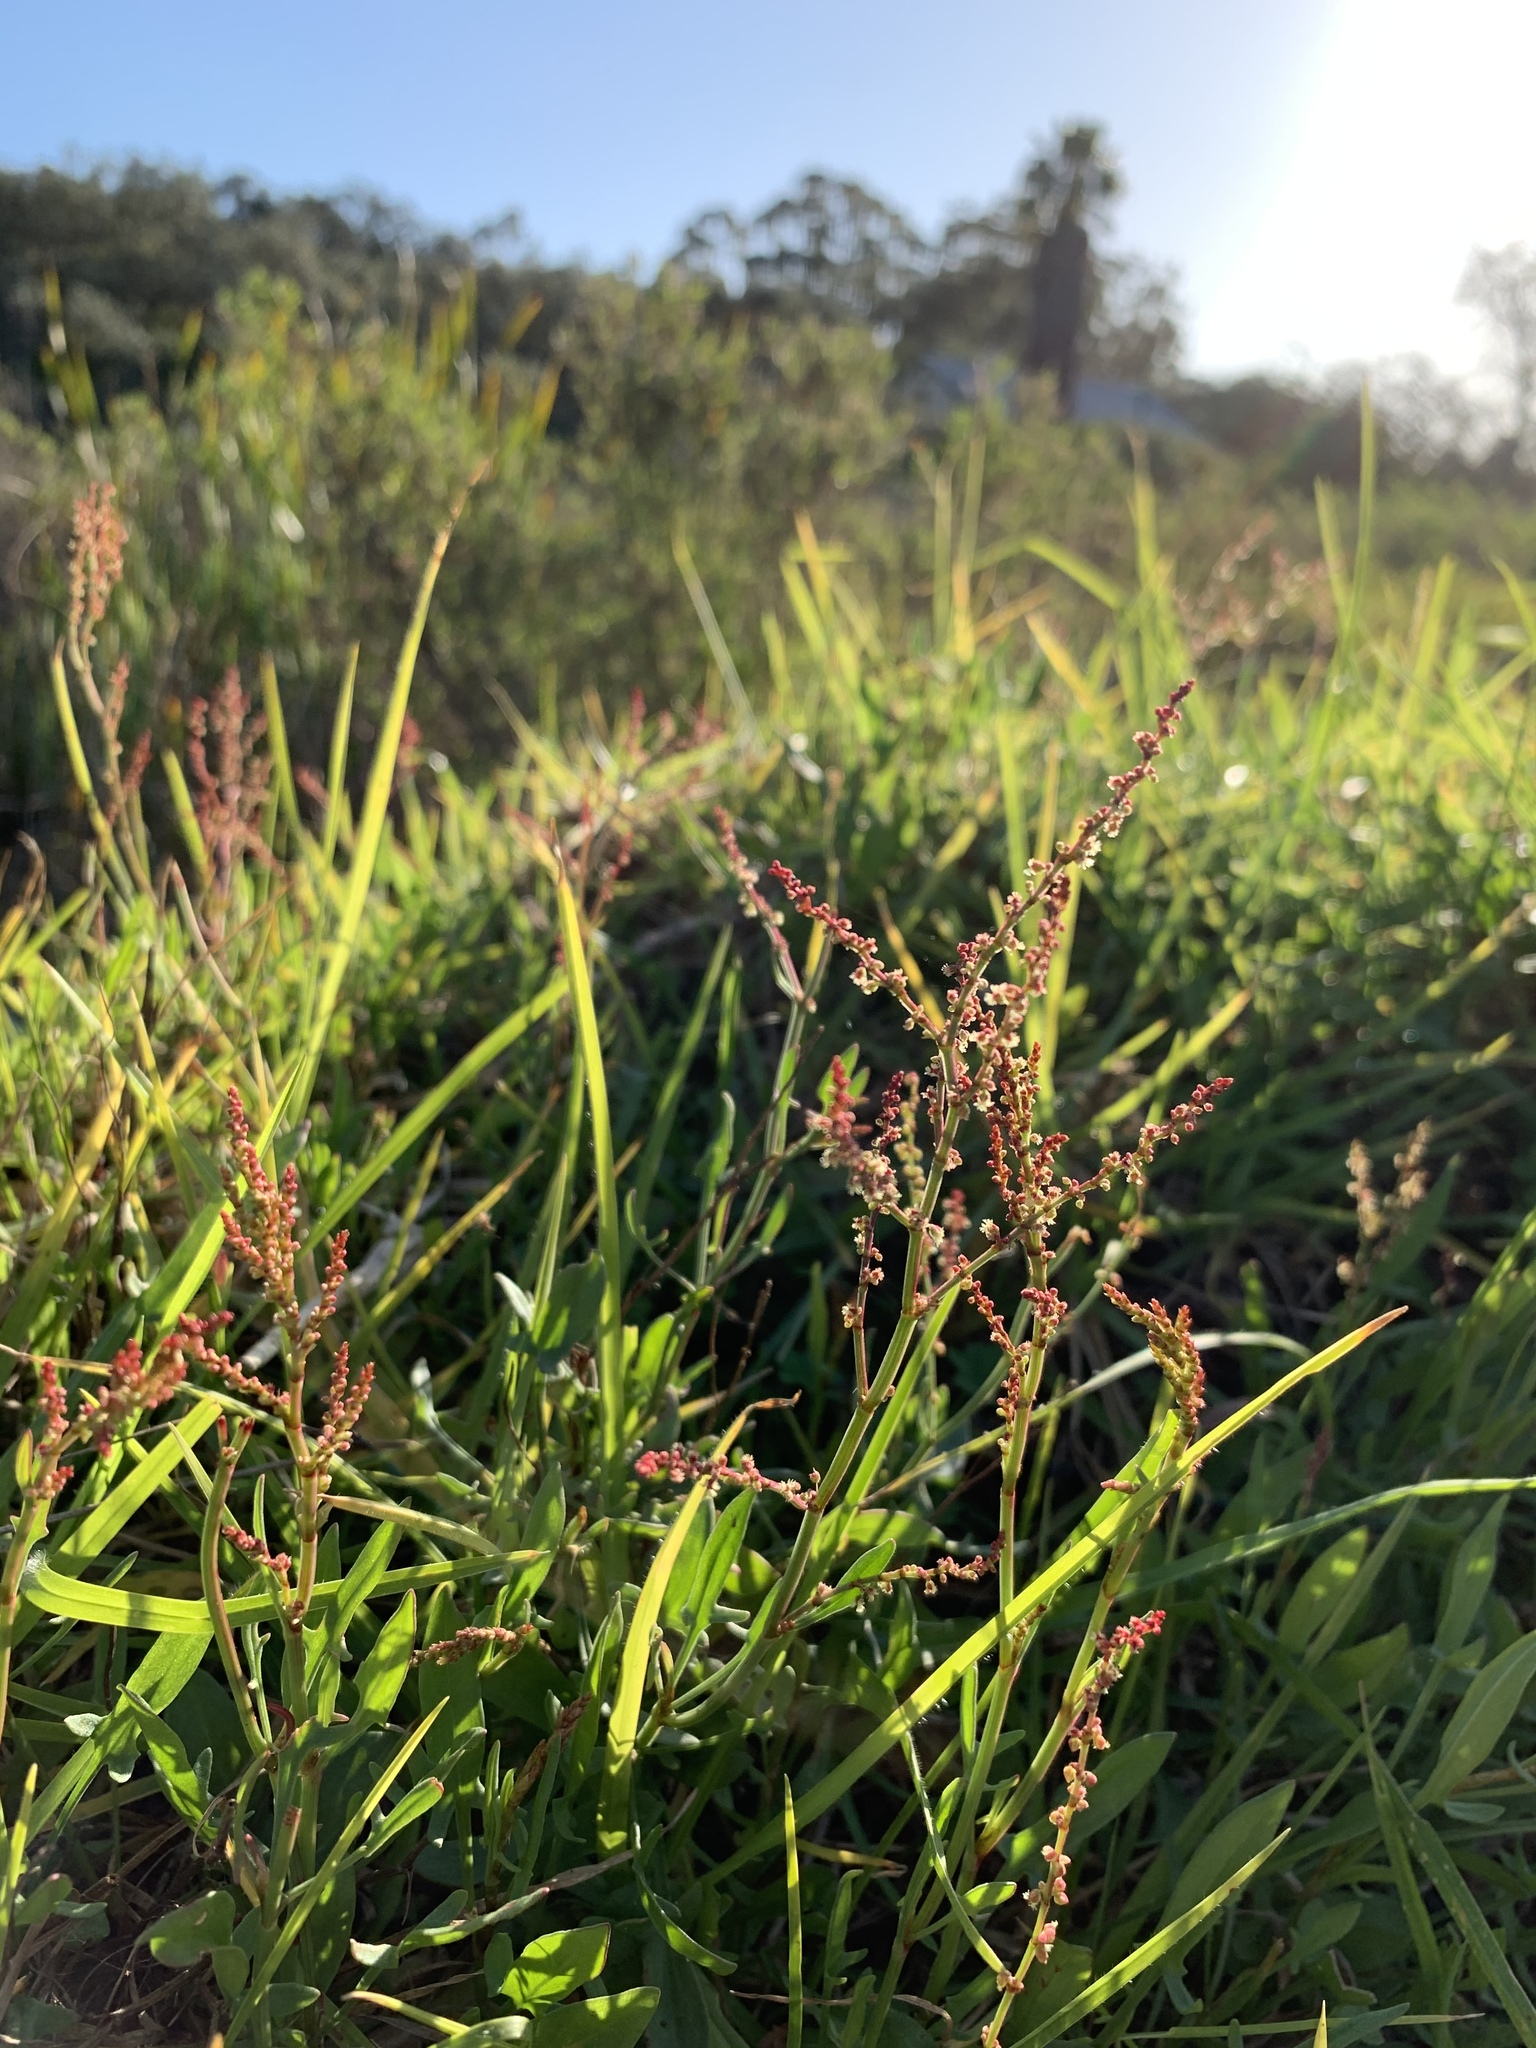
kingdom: Plantae
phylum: Tracheophyta
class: Magnoliopsida
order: Caryophyllales
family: Polygonaceae
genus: Rumex
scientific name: Rumex acetosella
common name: Common sheep sorrel
